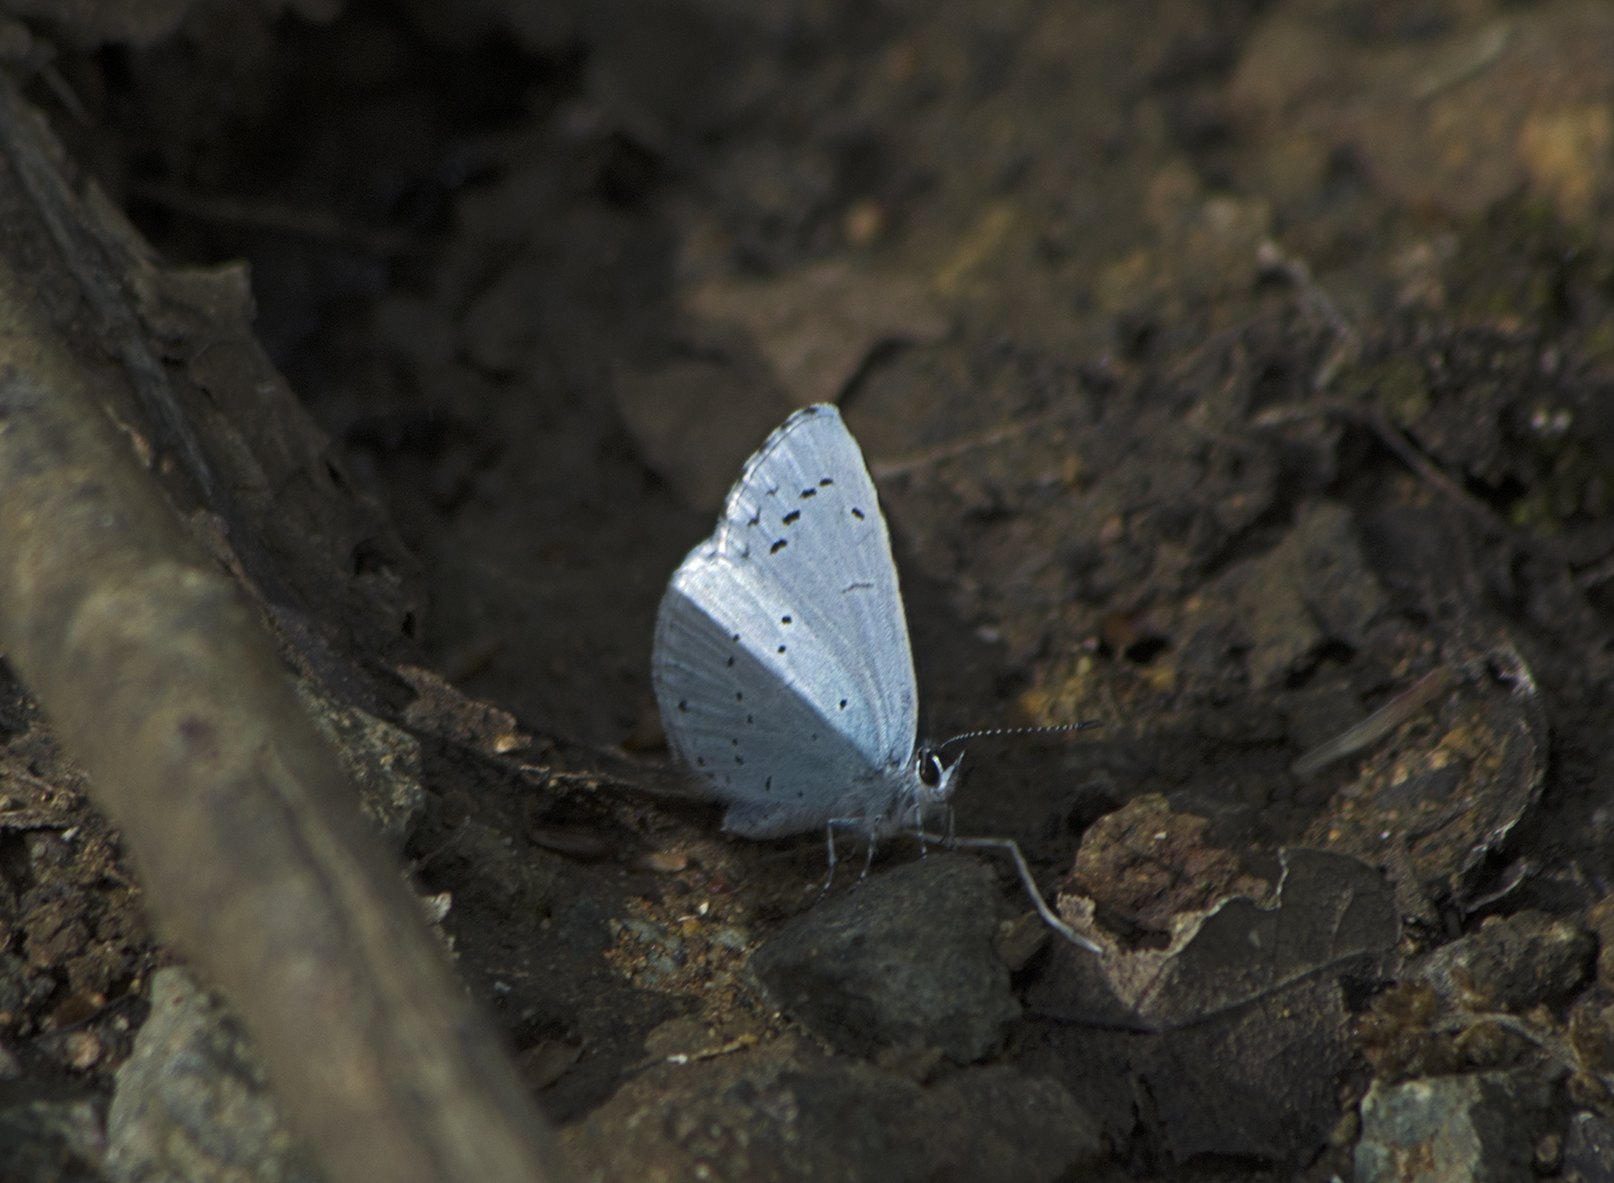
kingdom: Animalia
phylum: Arthropoda
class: Insecta
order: Lepidoptera
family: Lycaenidae
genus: Celastrina
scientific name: Celastrina argiolus
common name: Holly blue
